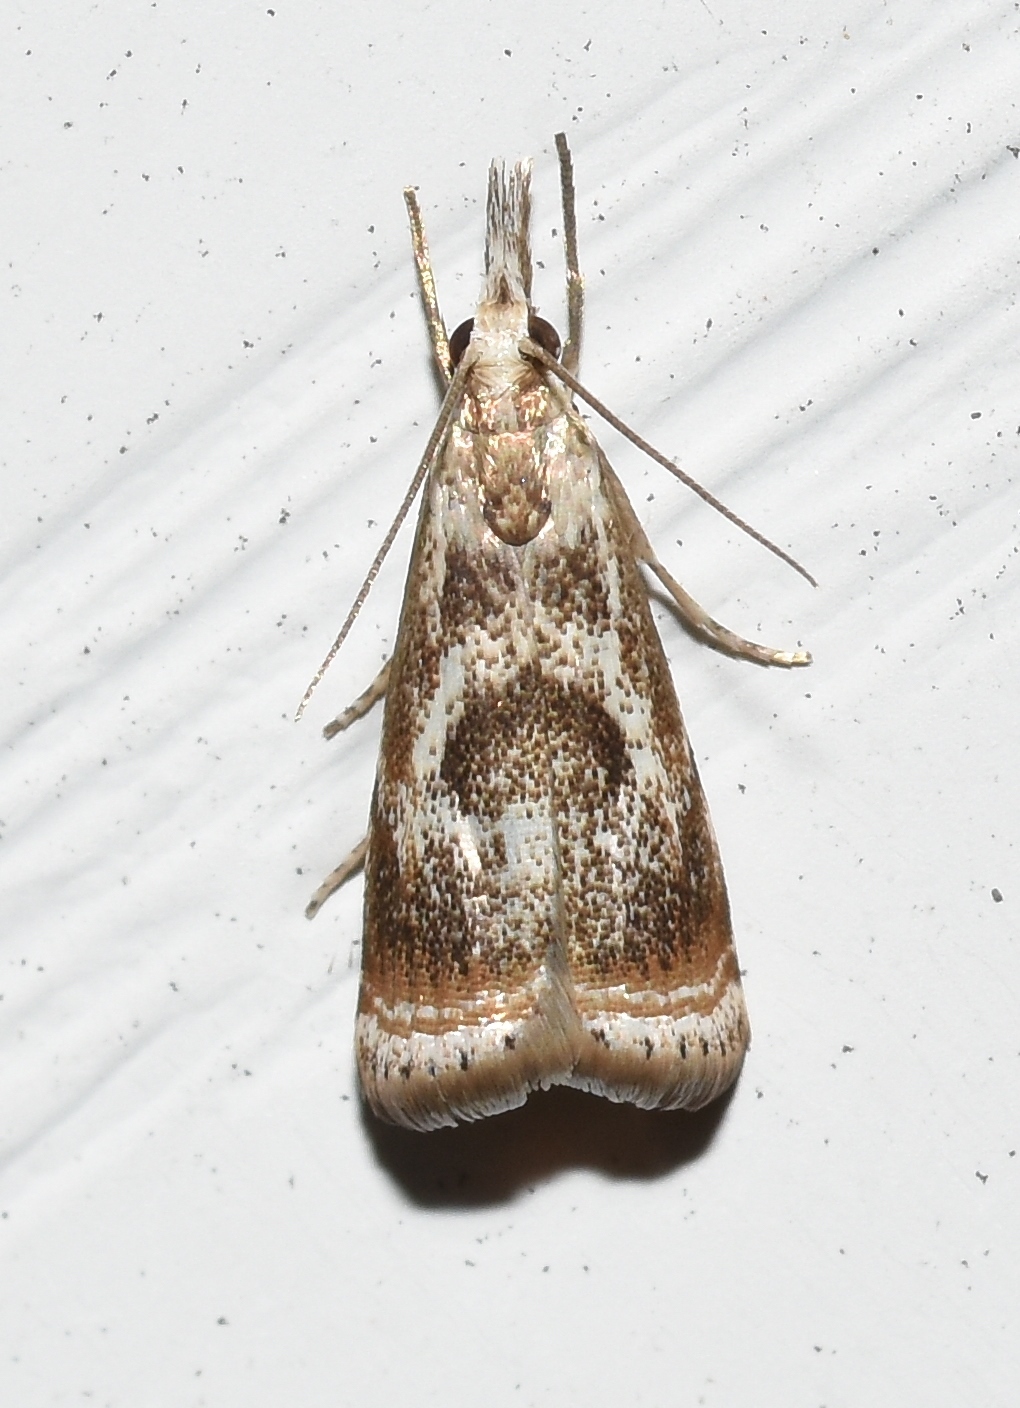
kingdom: Animalia
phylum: Arthropoda
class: Insecta
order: Lepidoptera
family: Crambidae
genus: Microcrambus
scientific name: Microcrambus elegans
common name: Elegant grass-veneer
